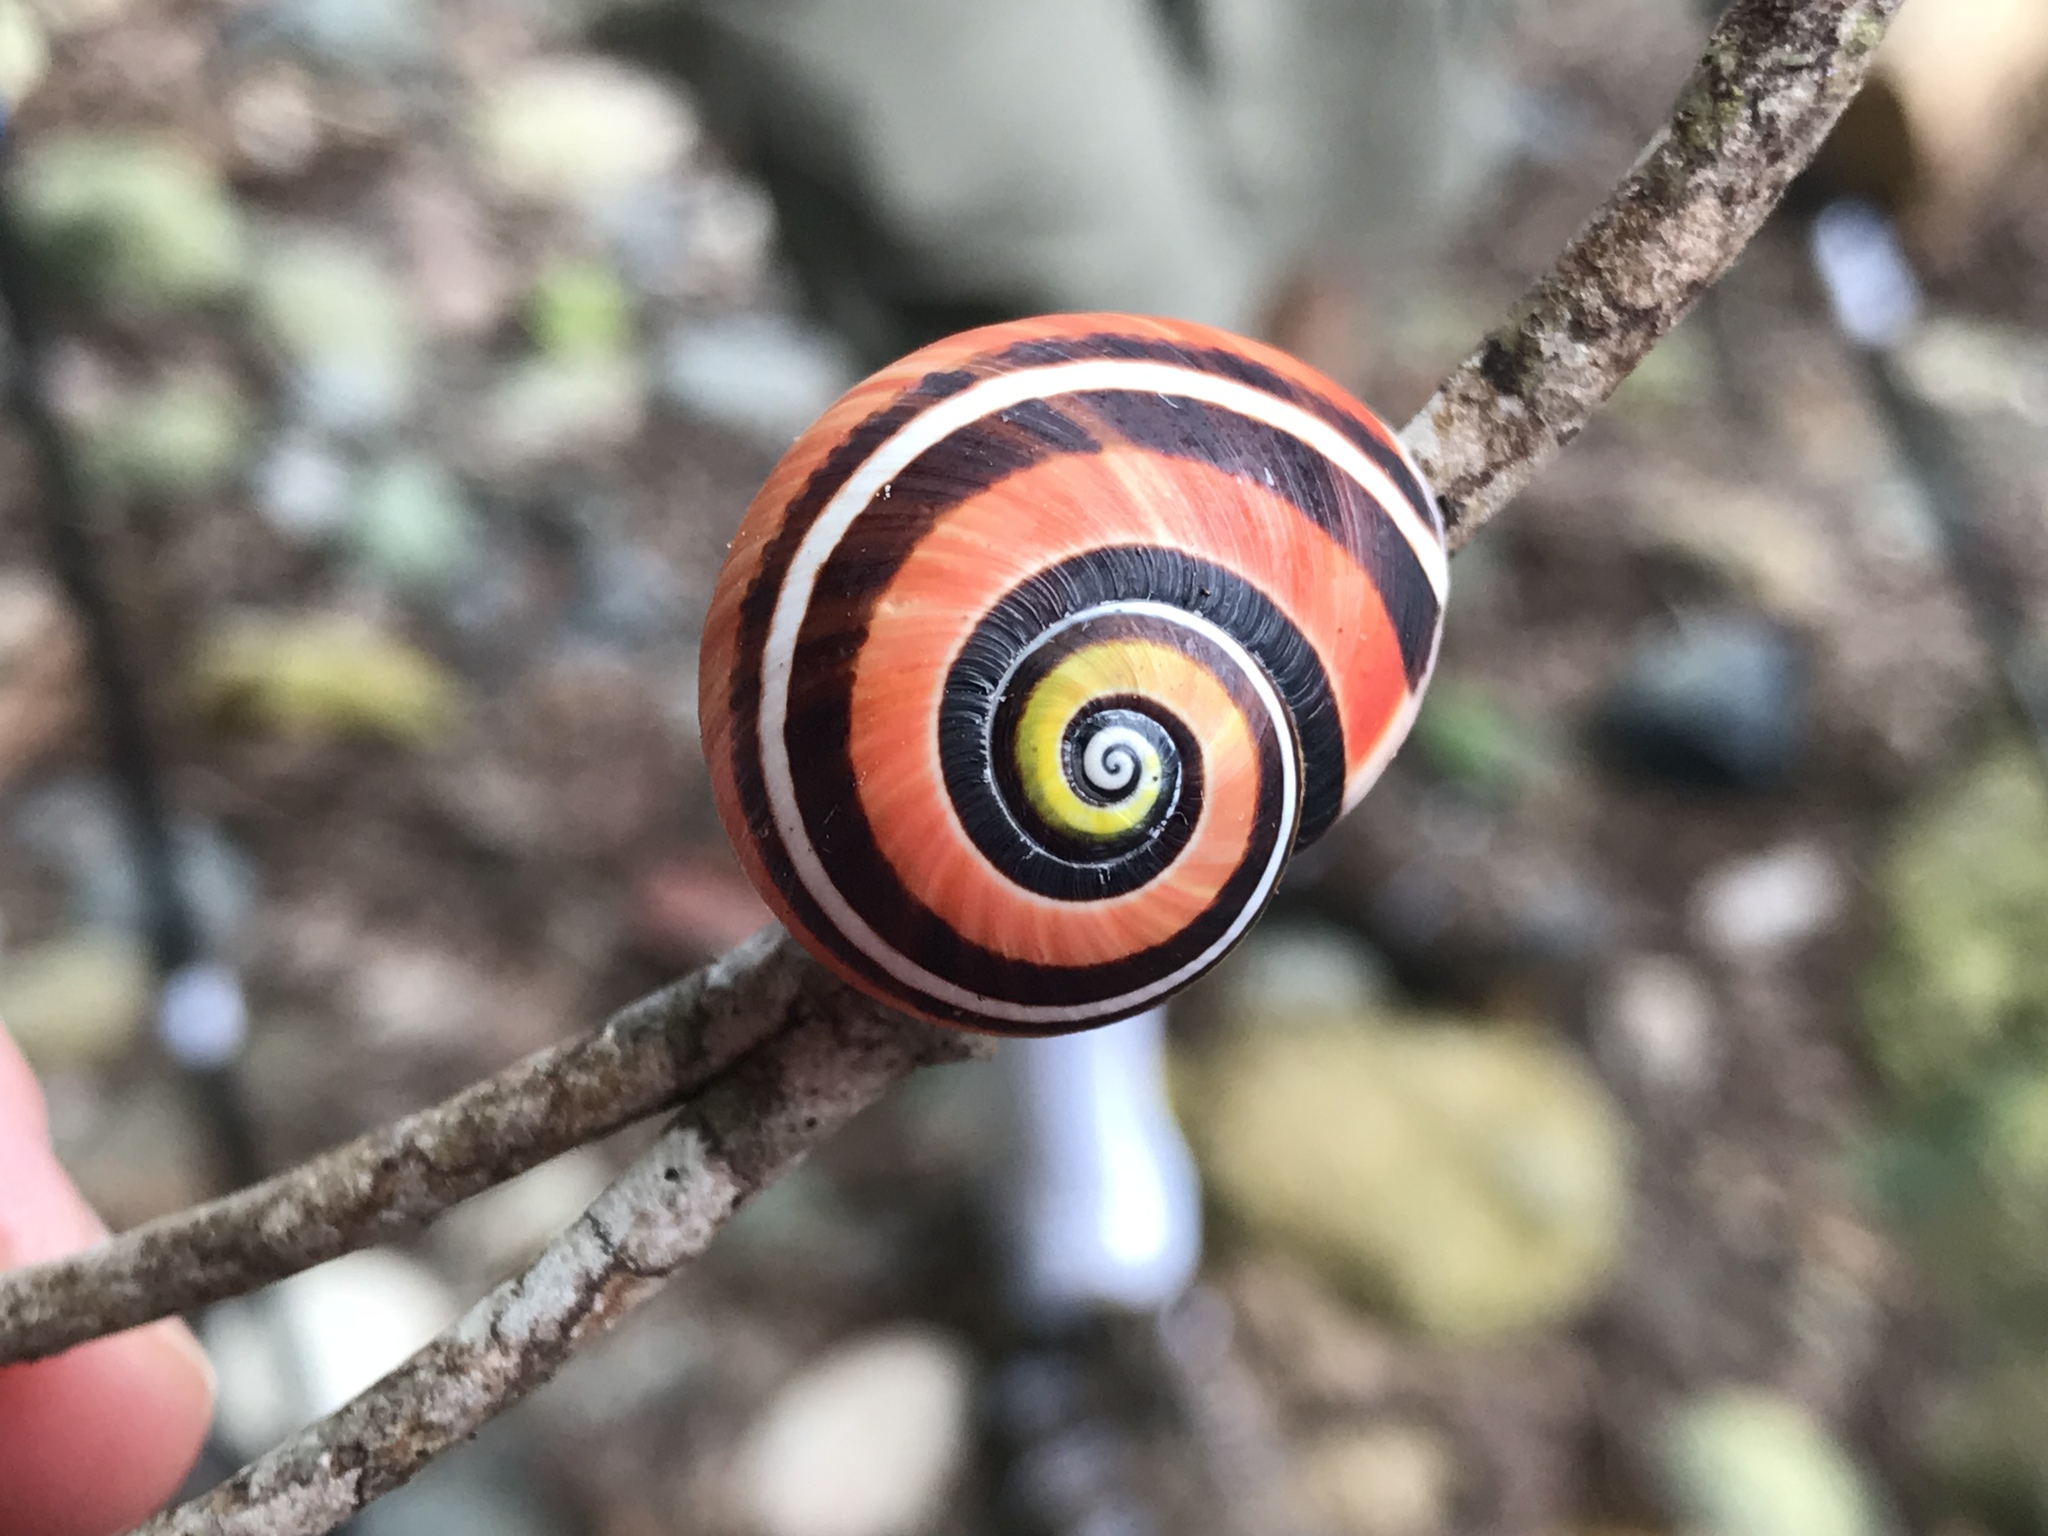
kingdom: Animalia
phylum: Mollusca
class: Gastropoda
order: Stylommatophora
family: Cepolidae
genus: Polymita
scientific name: Polymita picta
